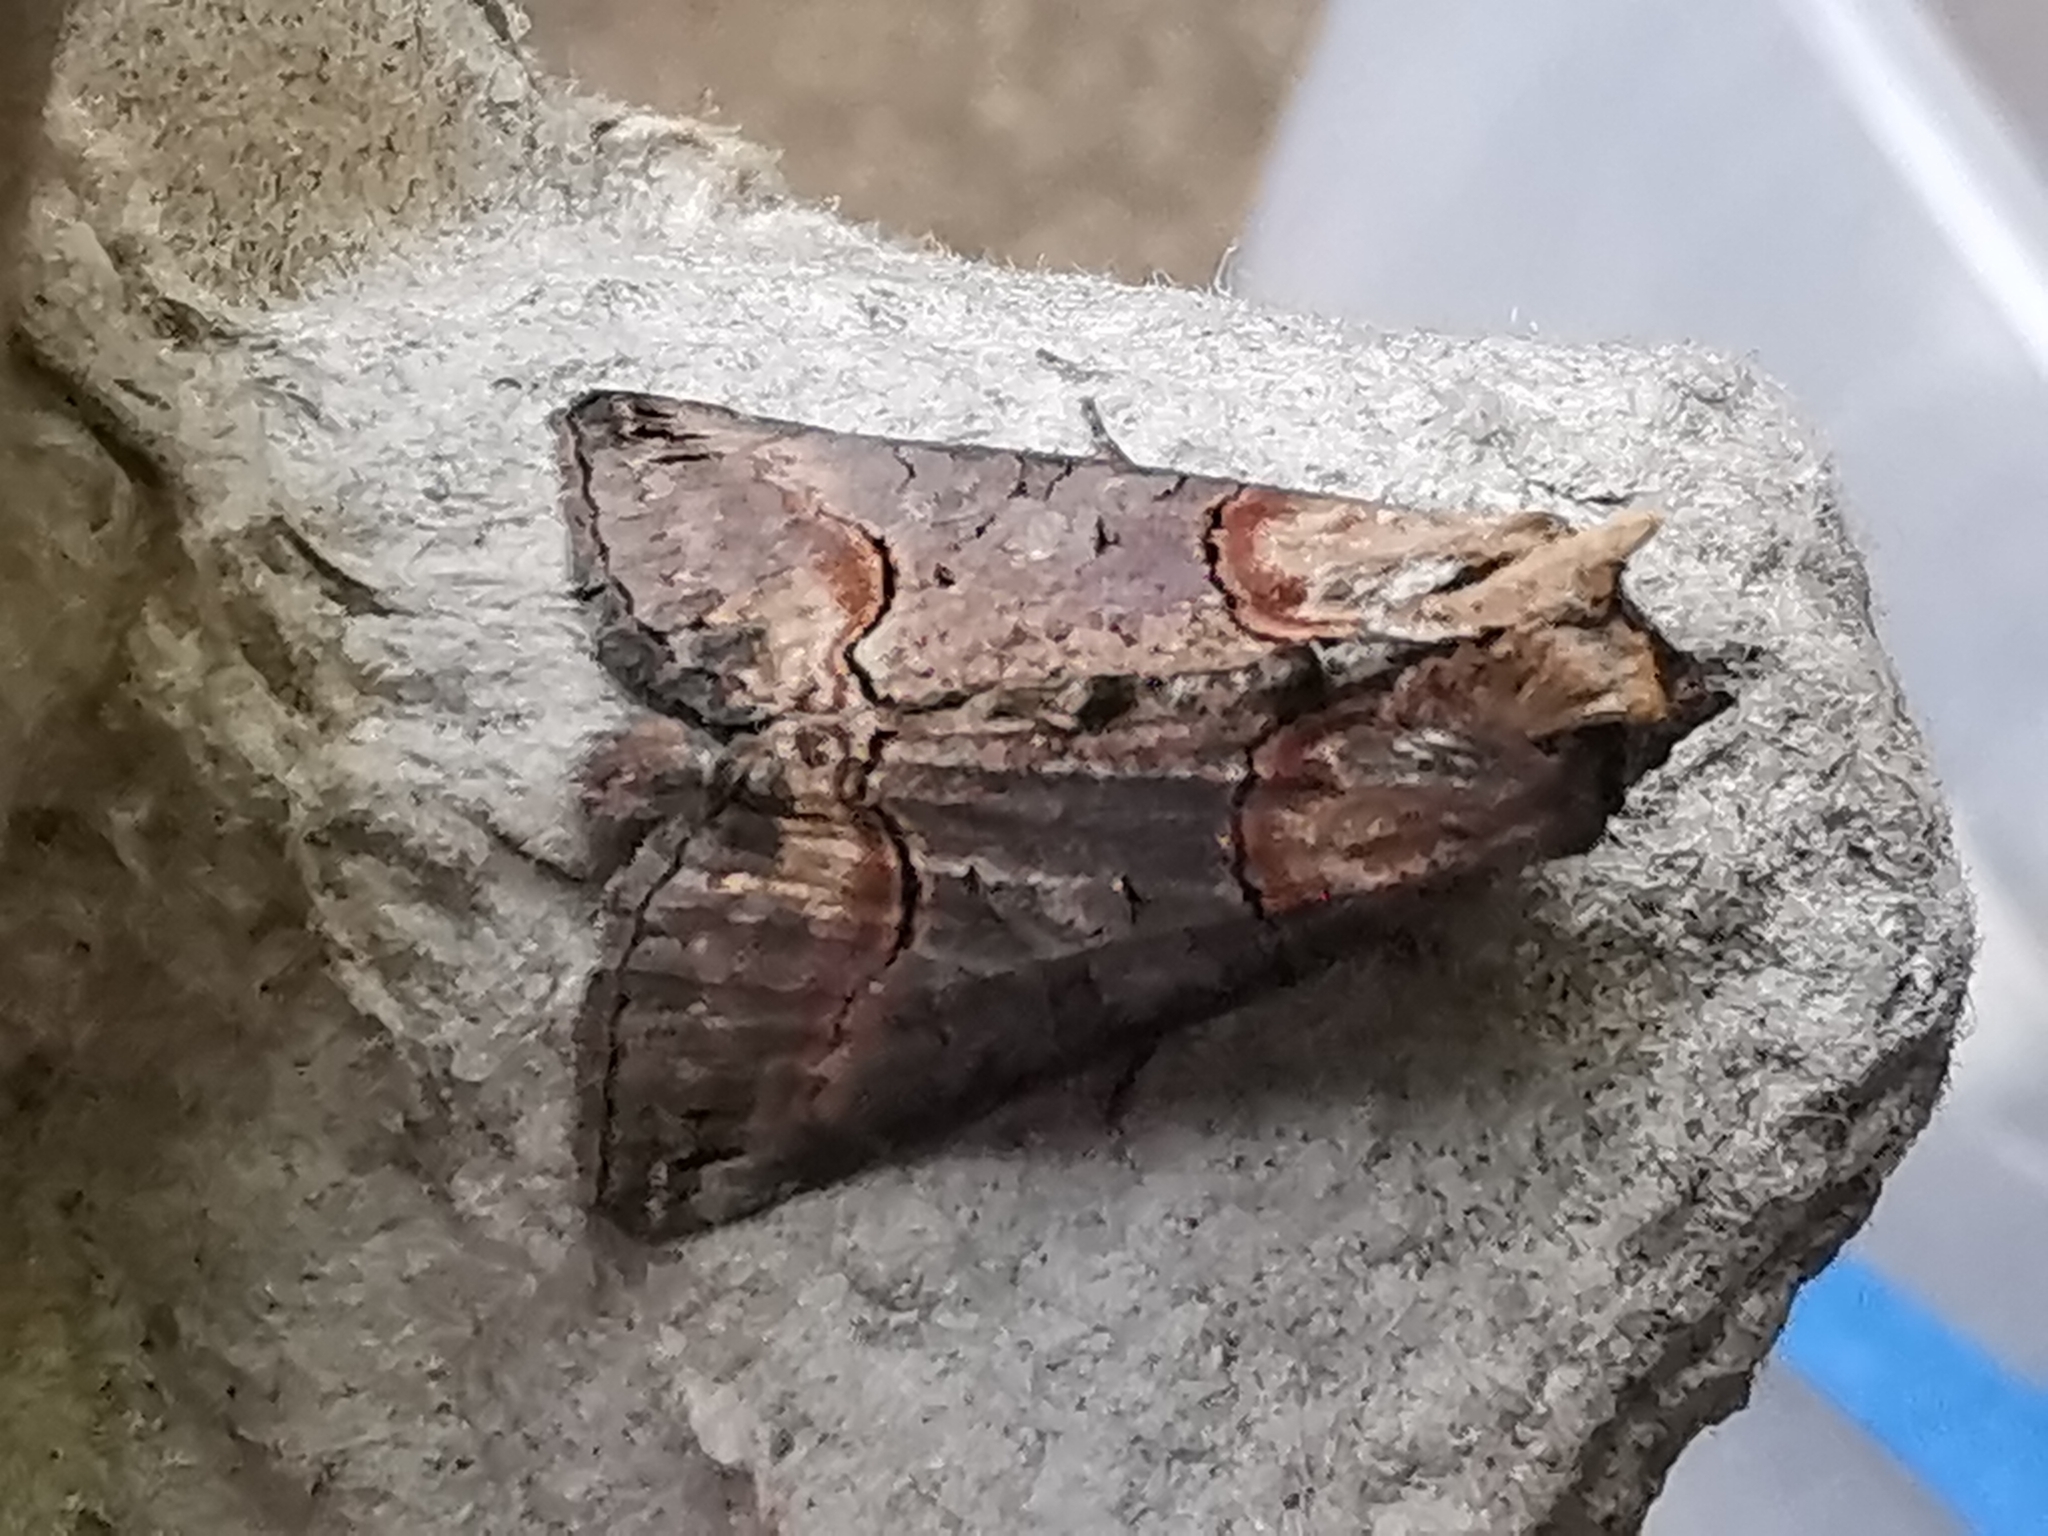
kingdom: Animalia
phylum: Arthropoda
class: Insecta
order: Lepidoptera
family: Noctuidae
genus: Abrostola
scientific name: Abrostola triplasia
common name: Dark spectacle
